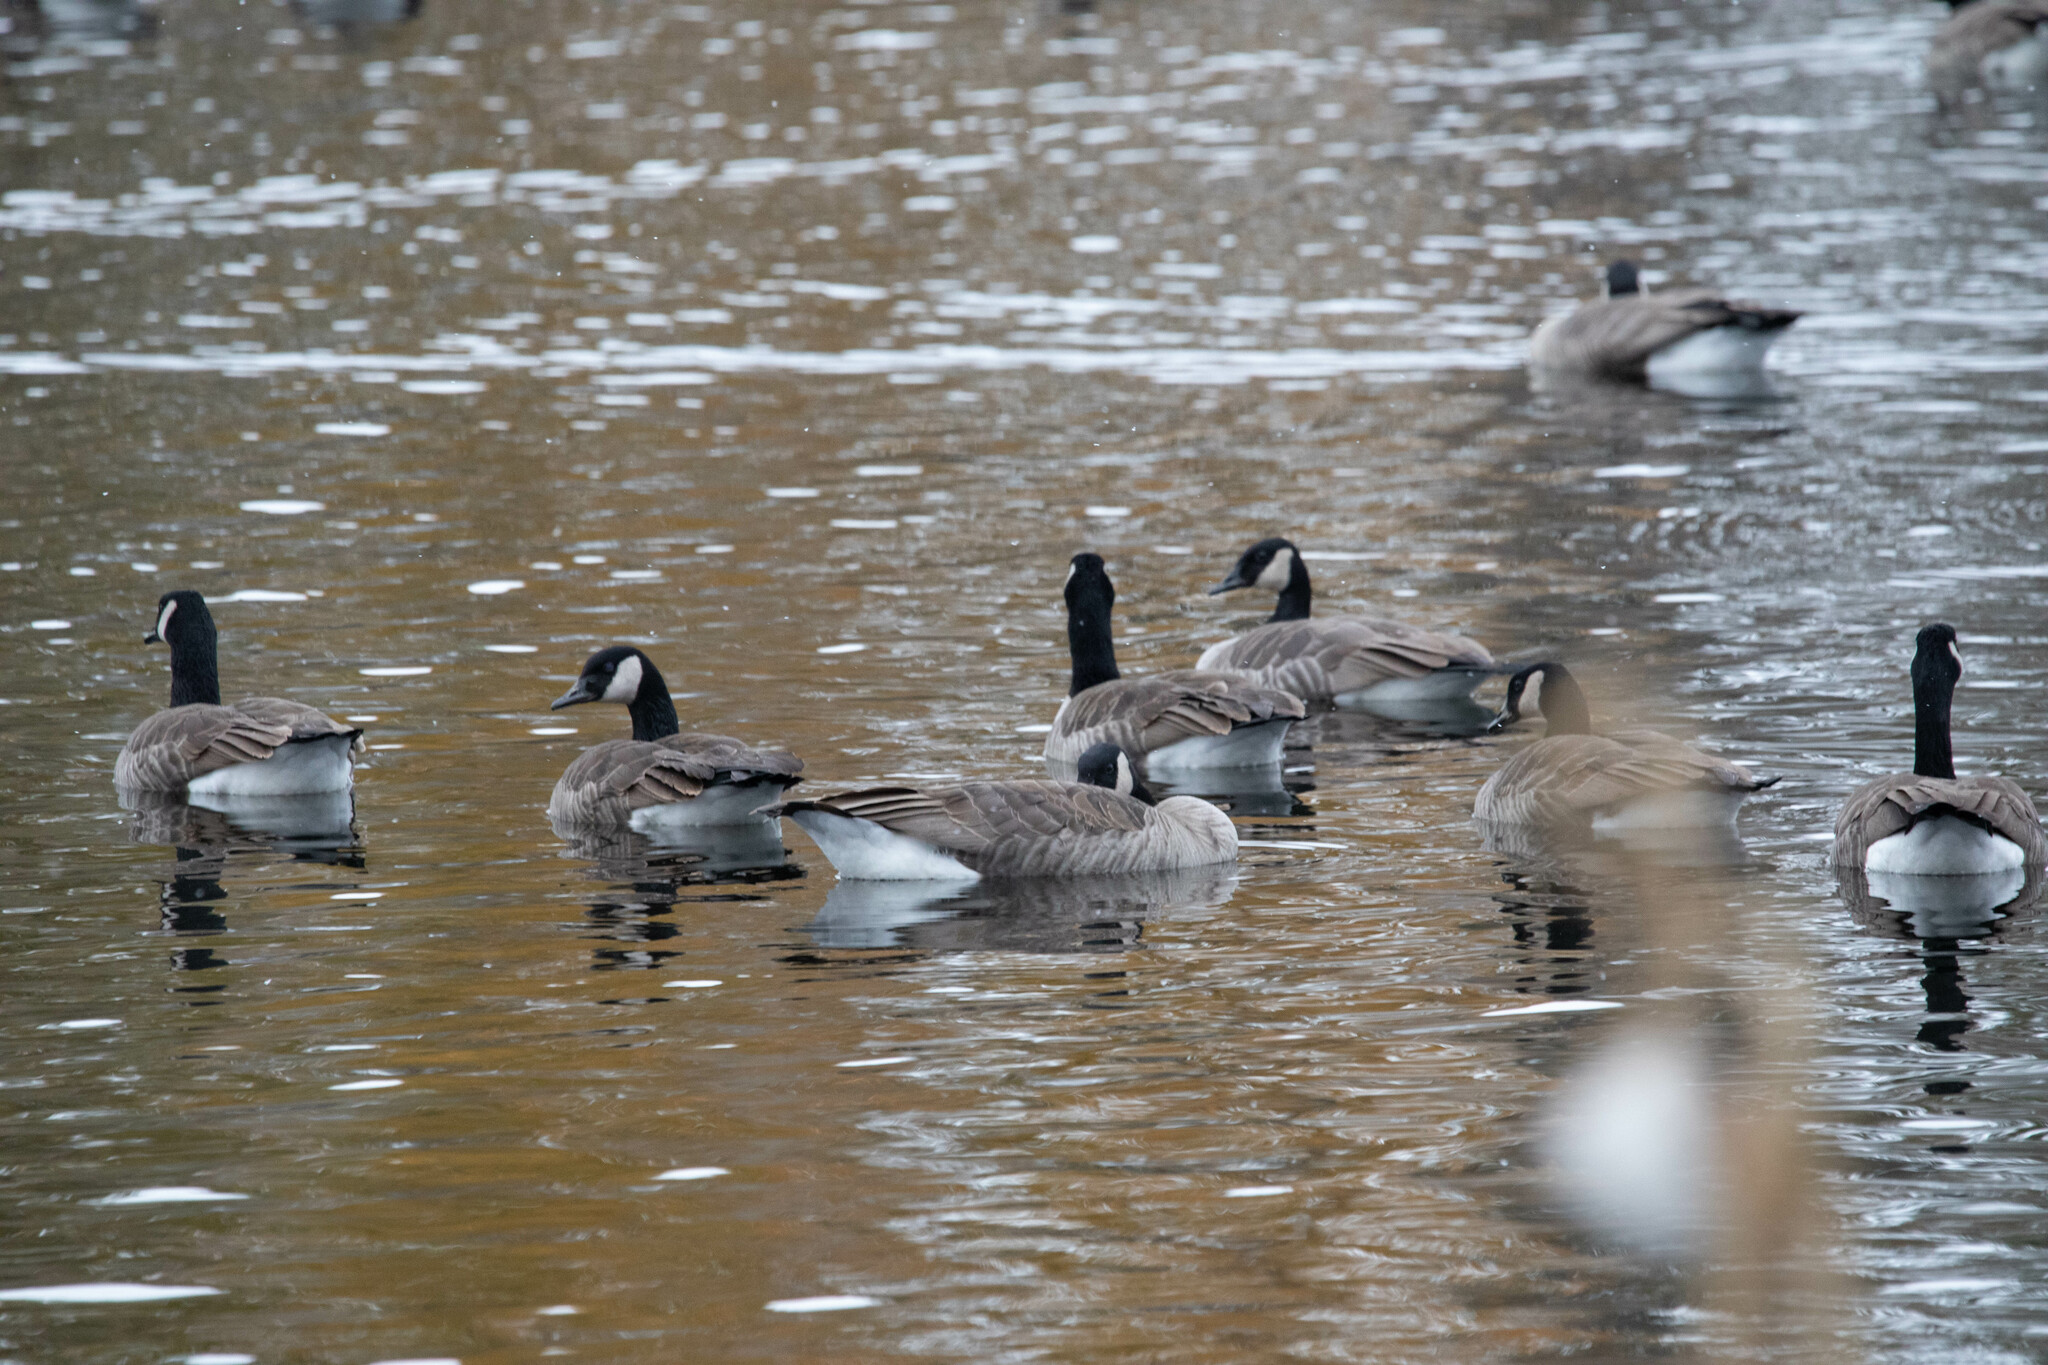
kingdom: Animalia
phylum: Chordata
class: Aves
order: Anseriformes
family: Anatidae
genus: Branta
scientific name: Branta canadensis
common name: Canada goose
